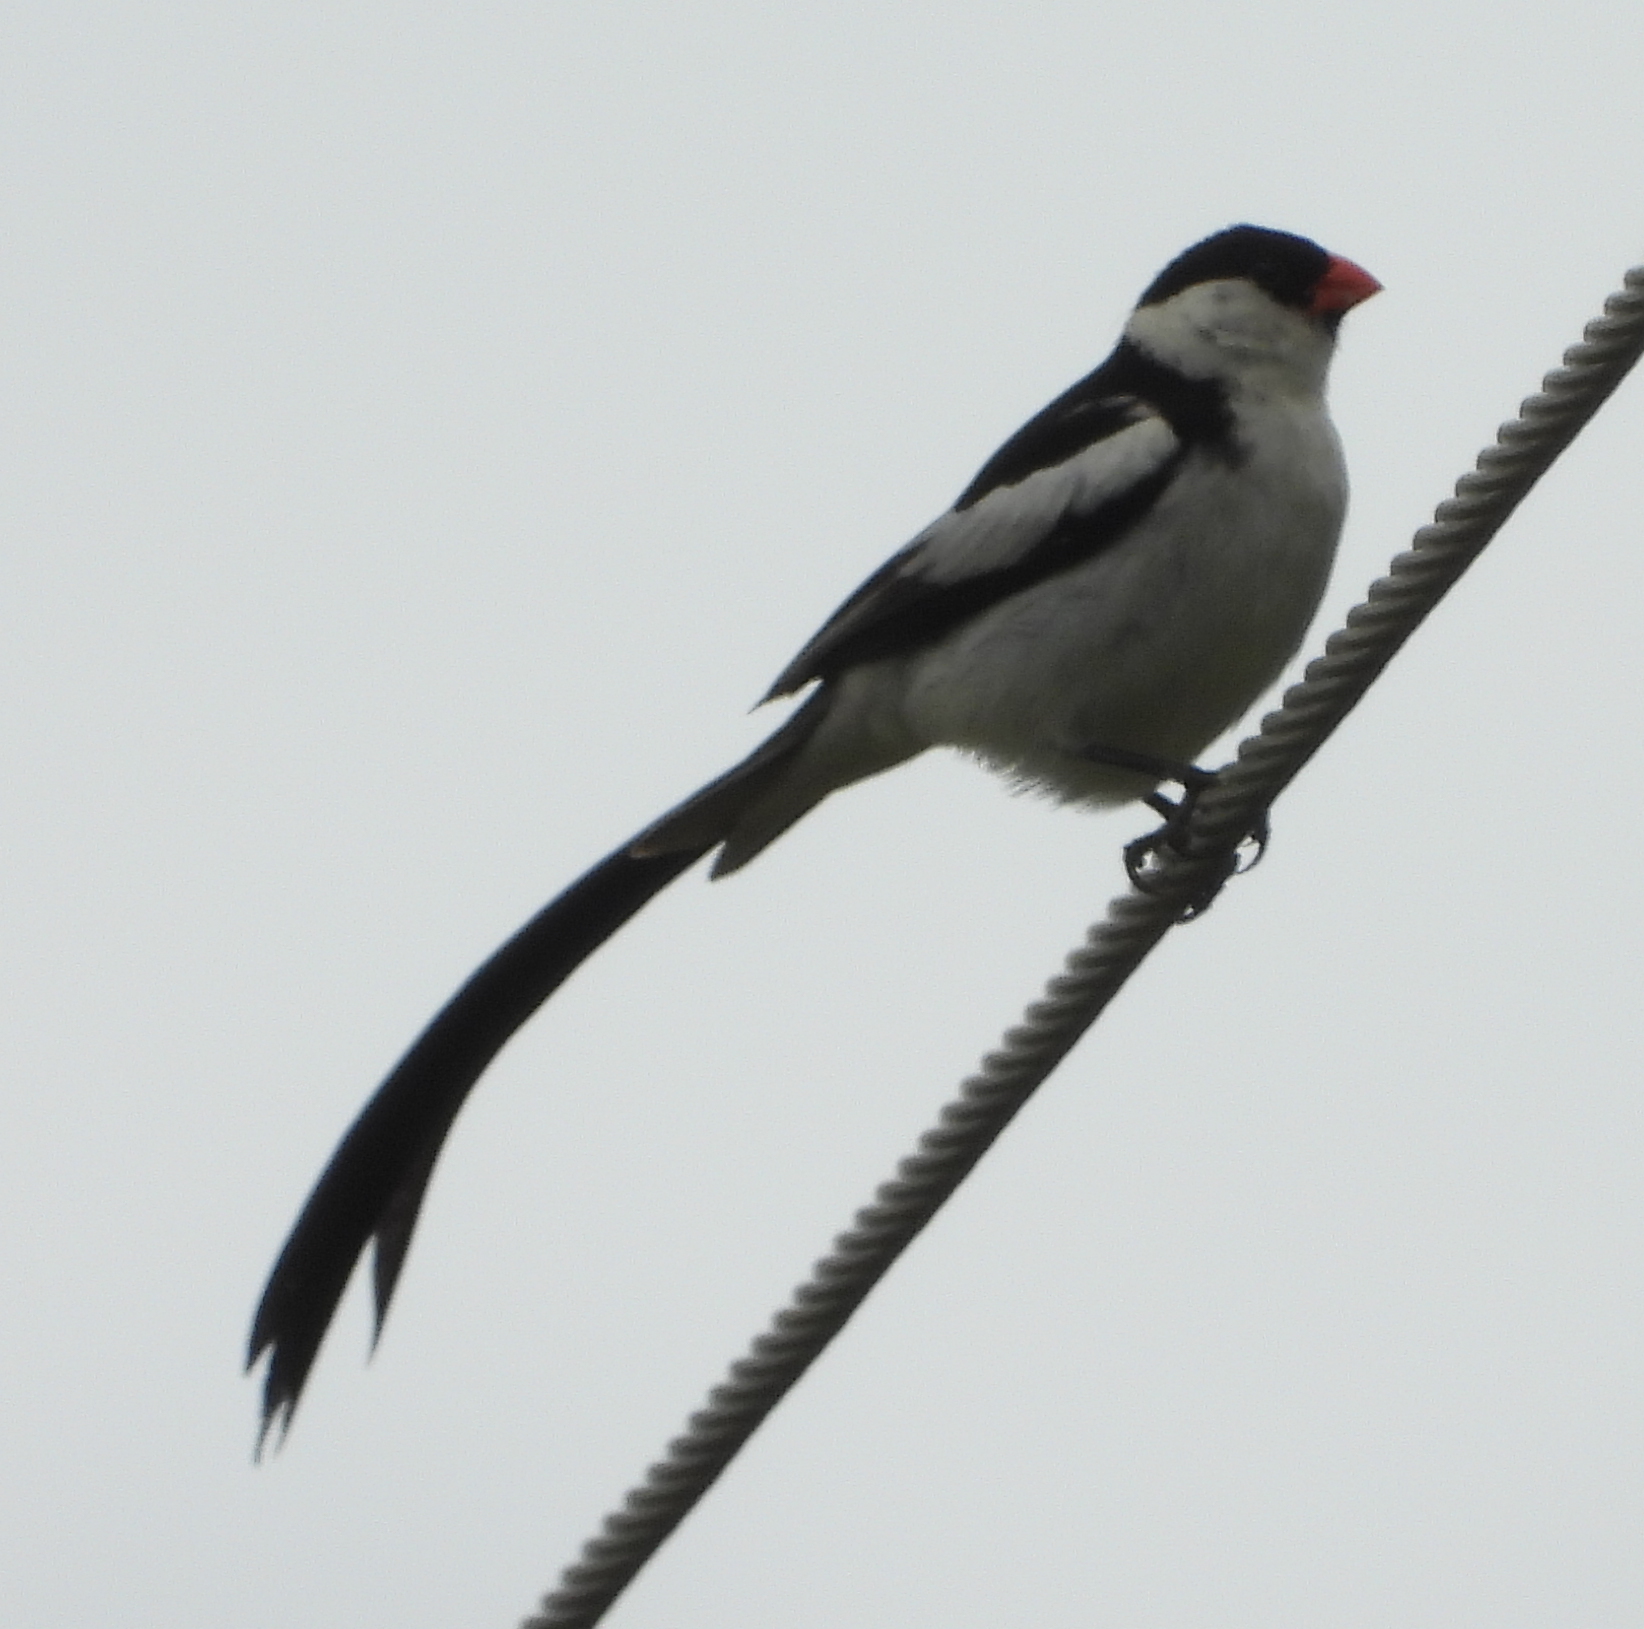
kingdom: Animalia
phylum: Chordata
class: Aves
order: Passeriformes
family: Viduidae
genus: Vidua
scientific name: Vidua macroura
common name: Pin-tailed whydah
